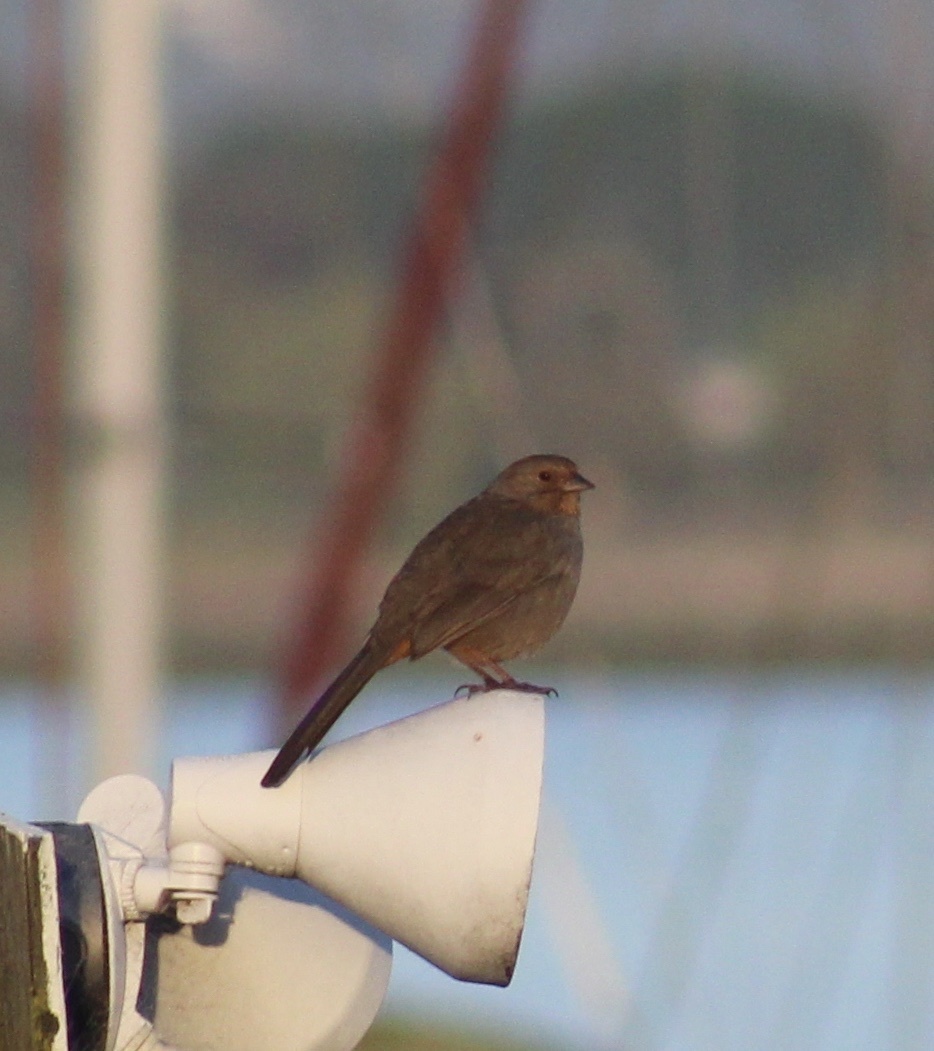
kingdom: Animalia
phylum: Chordata
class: Aves
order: Passeriformes
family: Passerellidae
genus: Melozone
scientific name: Melozone crissalis
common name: California towhee
